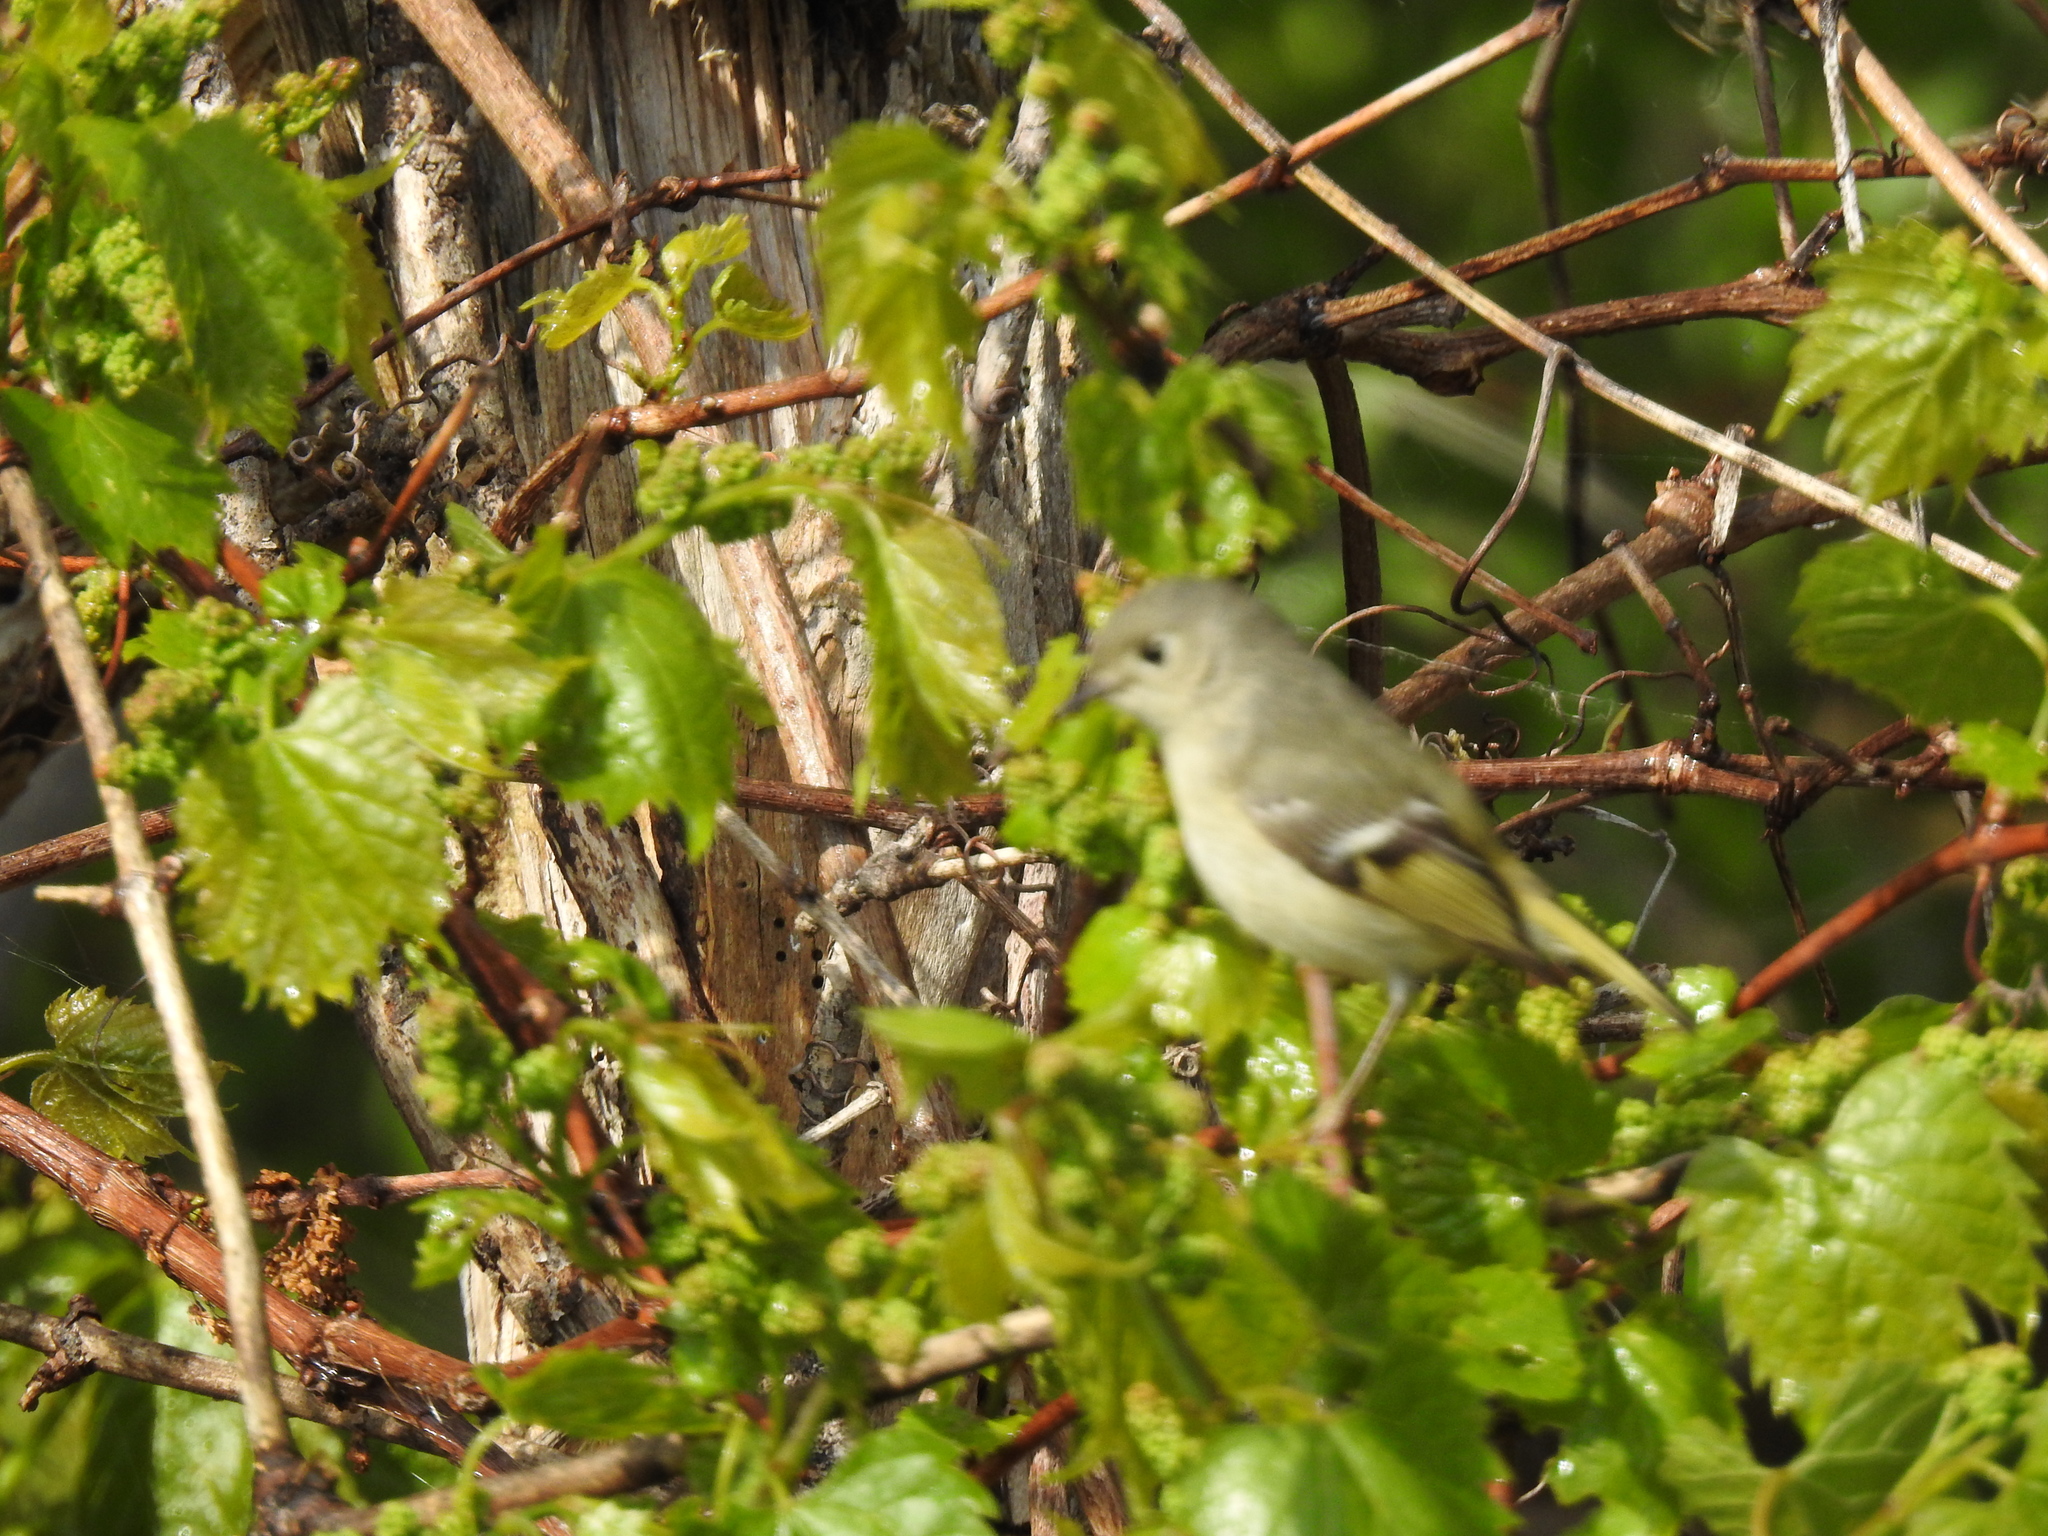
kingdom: Animalia
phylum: Chordata
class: Aves
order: Passeriformes
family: Regulidae
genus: Regulus
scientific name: Regulus calendula
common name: Ruby-crowned kinglet
